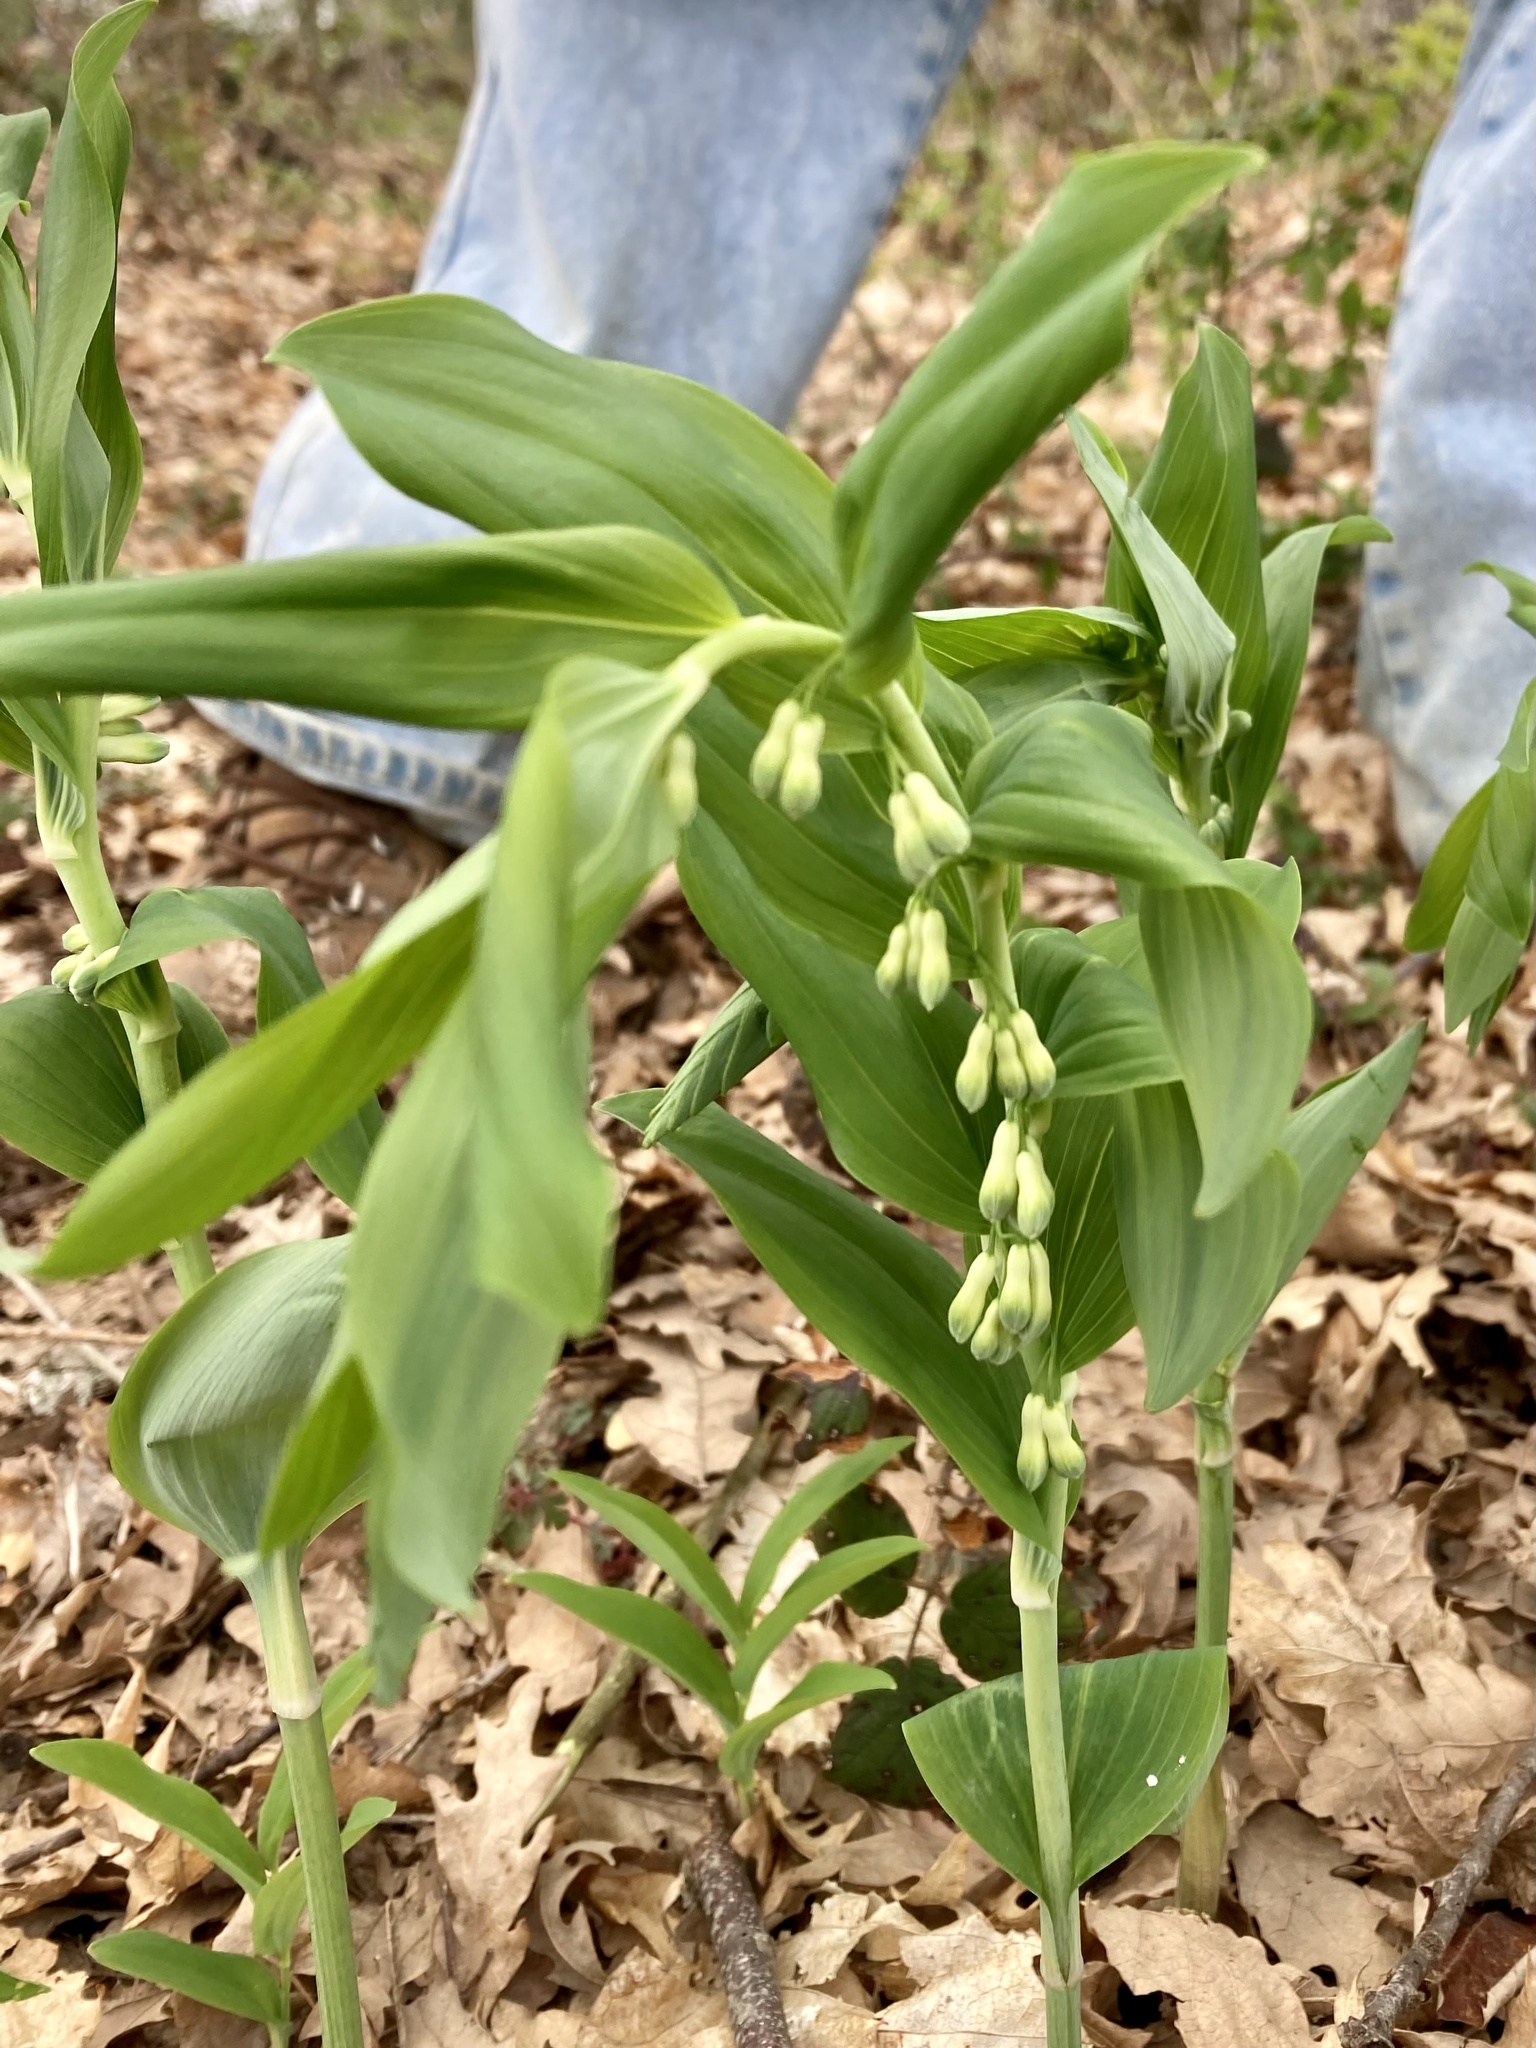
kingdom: Plantae
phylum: Tracheophyta
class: Liliopsida
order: Asparagales
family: Asparagaceae
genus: Polygonatum
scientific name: Polygonatum multiflorum
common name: Solomon's-seal
